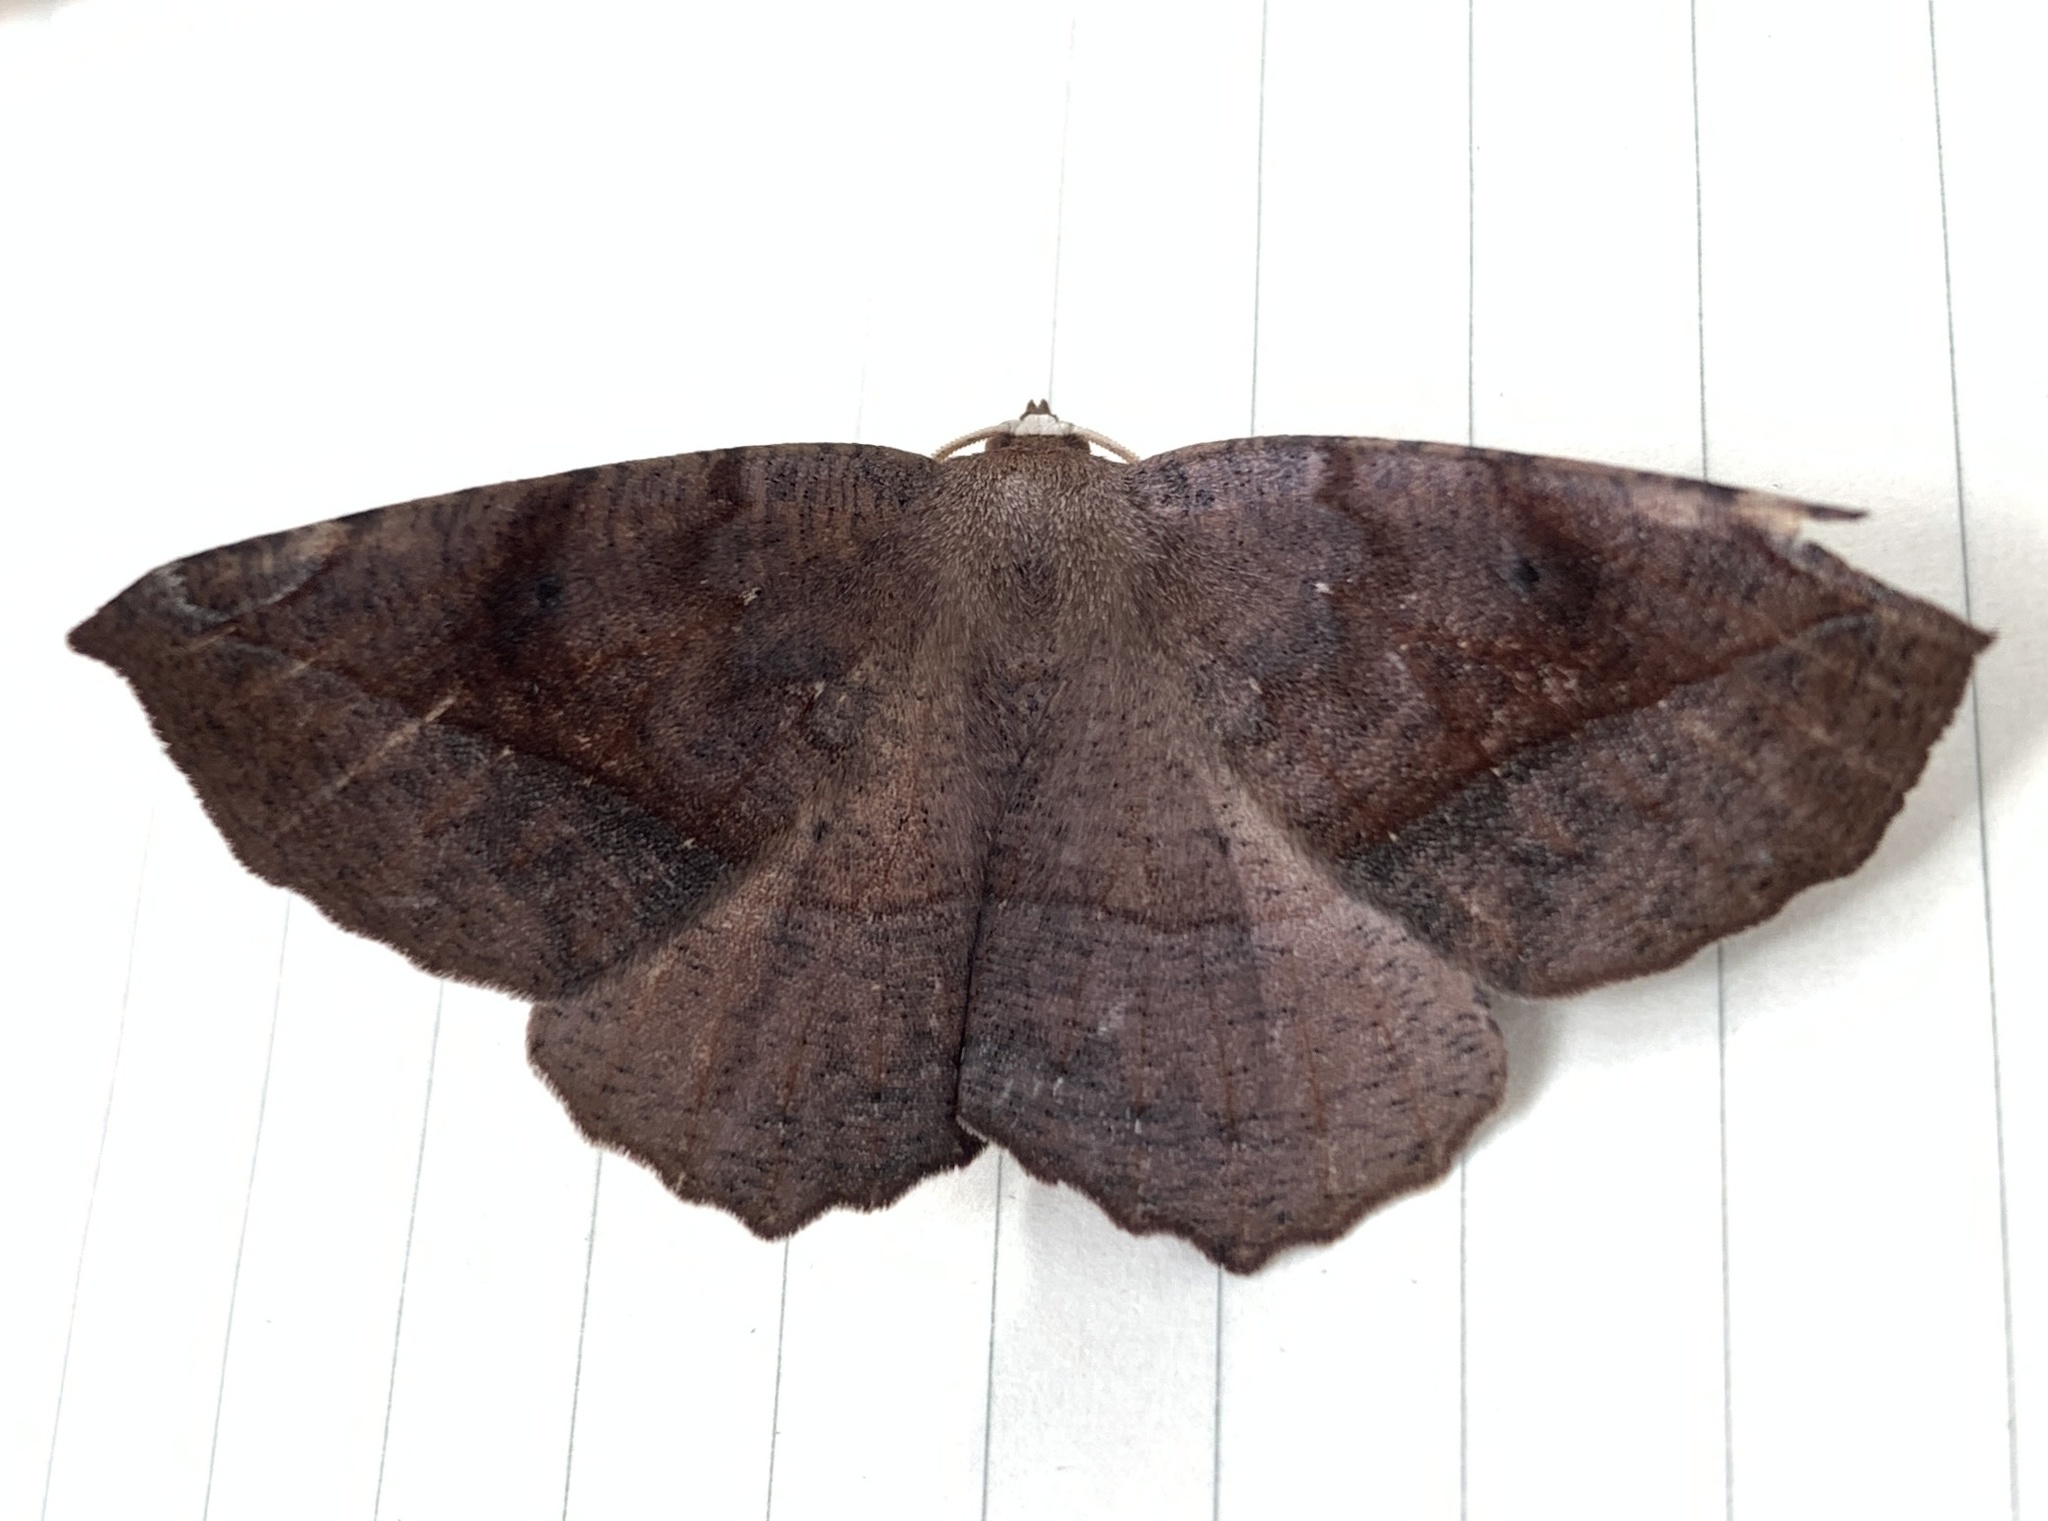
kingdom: Animalia
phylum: Arthropoda
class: Insecta
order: Lepidoptera
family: Geometridae
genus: Eutrapela
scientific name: Eutrapela clemataria
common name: Curved-toothed geometer
